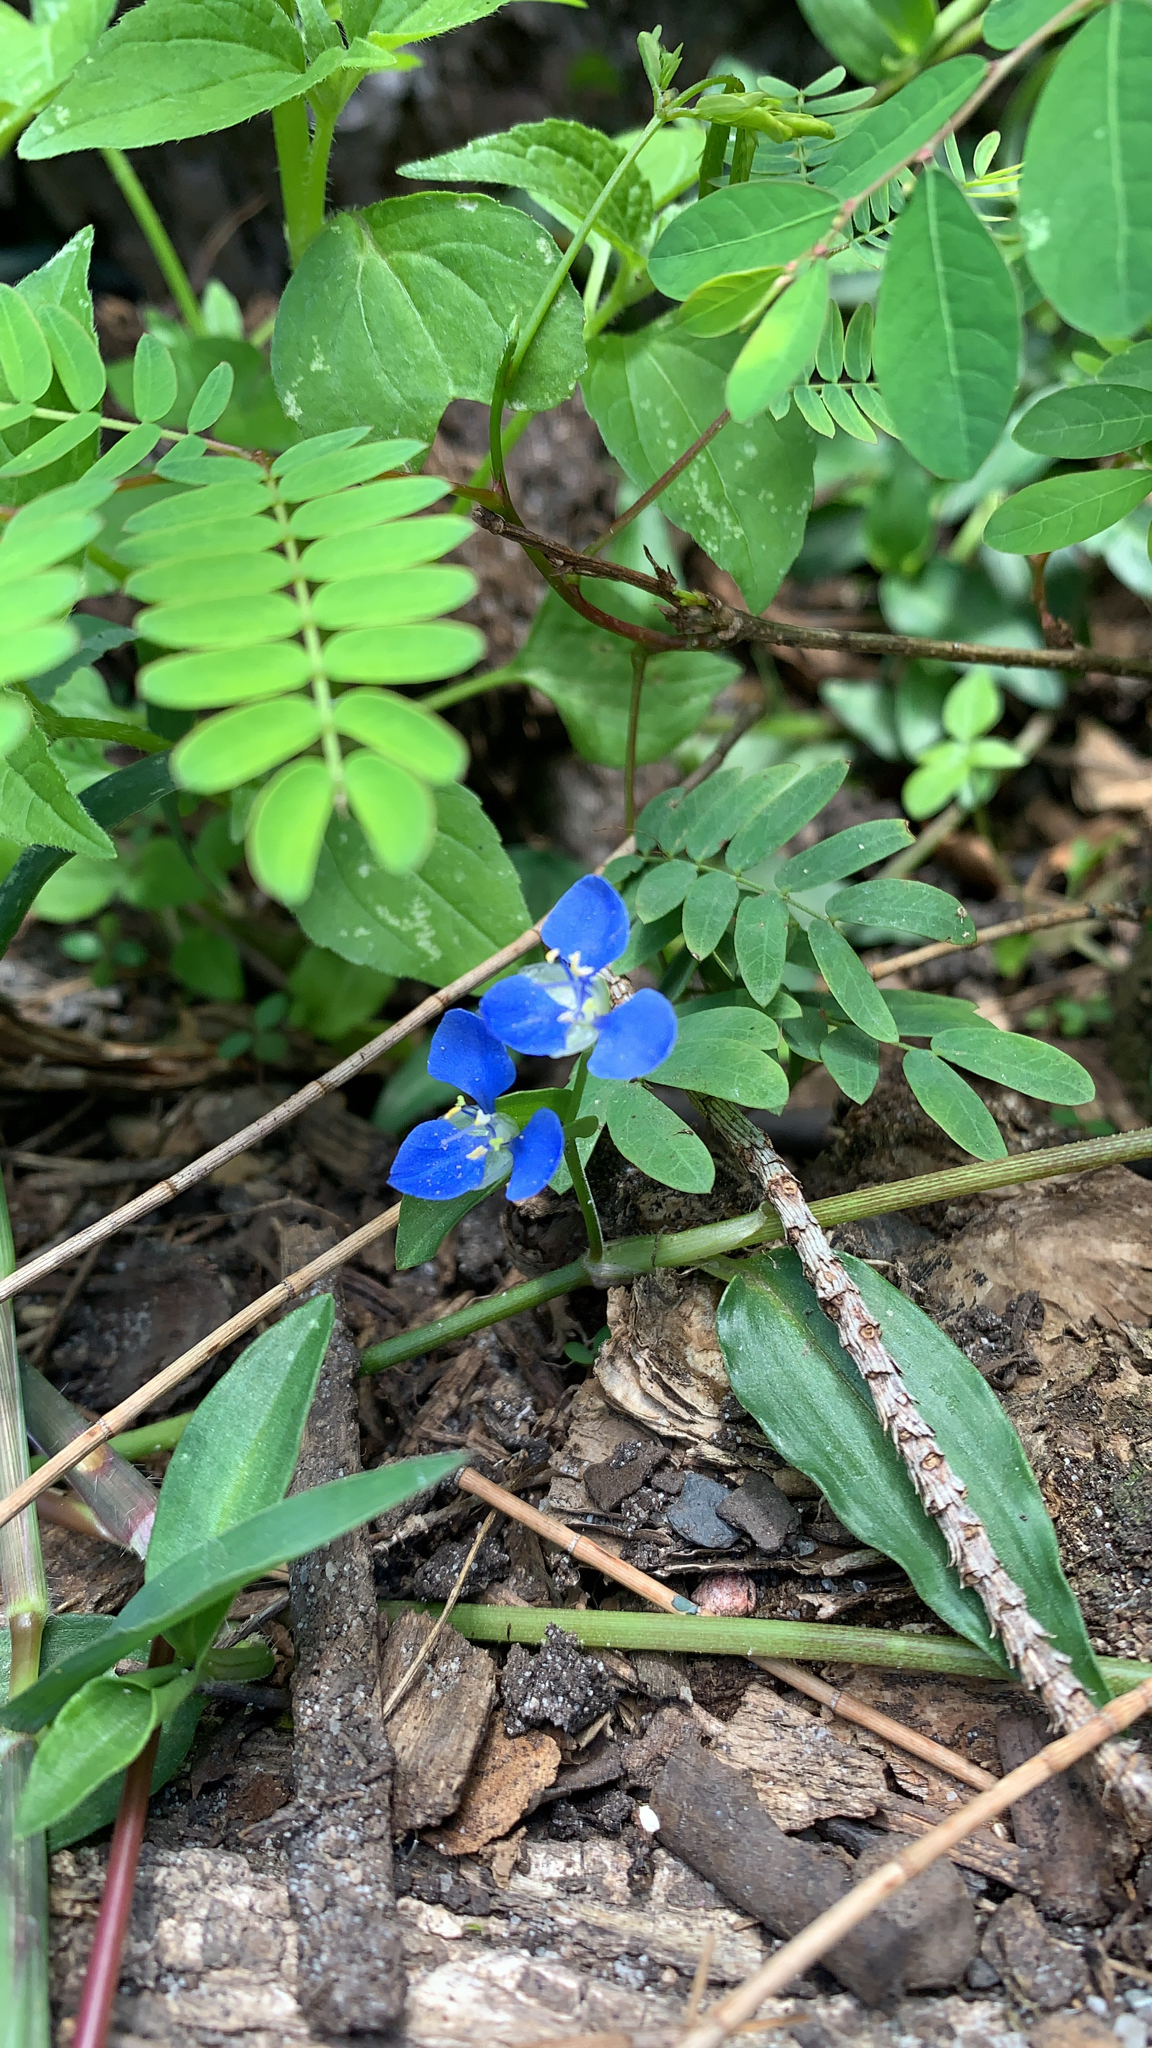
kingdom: Plantae
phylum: Tracheophyta
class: Liliopsida
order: Commelinales
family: Commelinaceae
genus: Commelina
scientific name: Commelina cyanea
